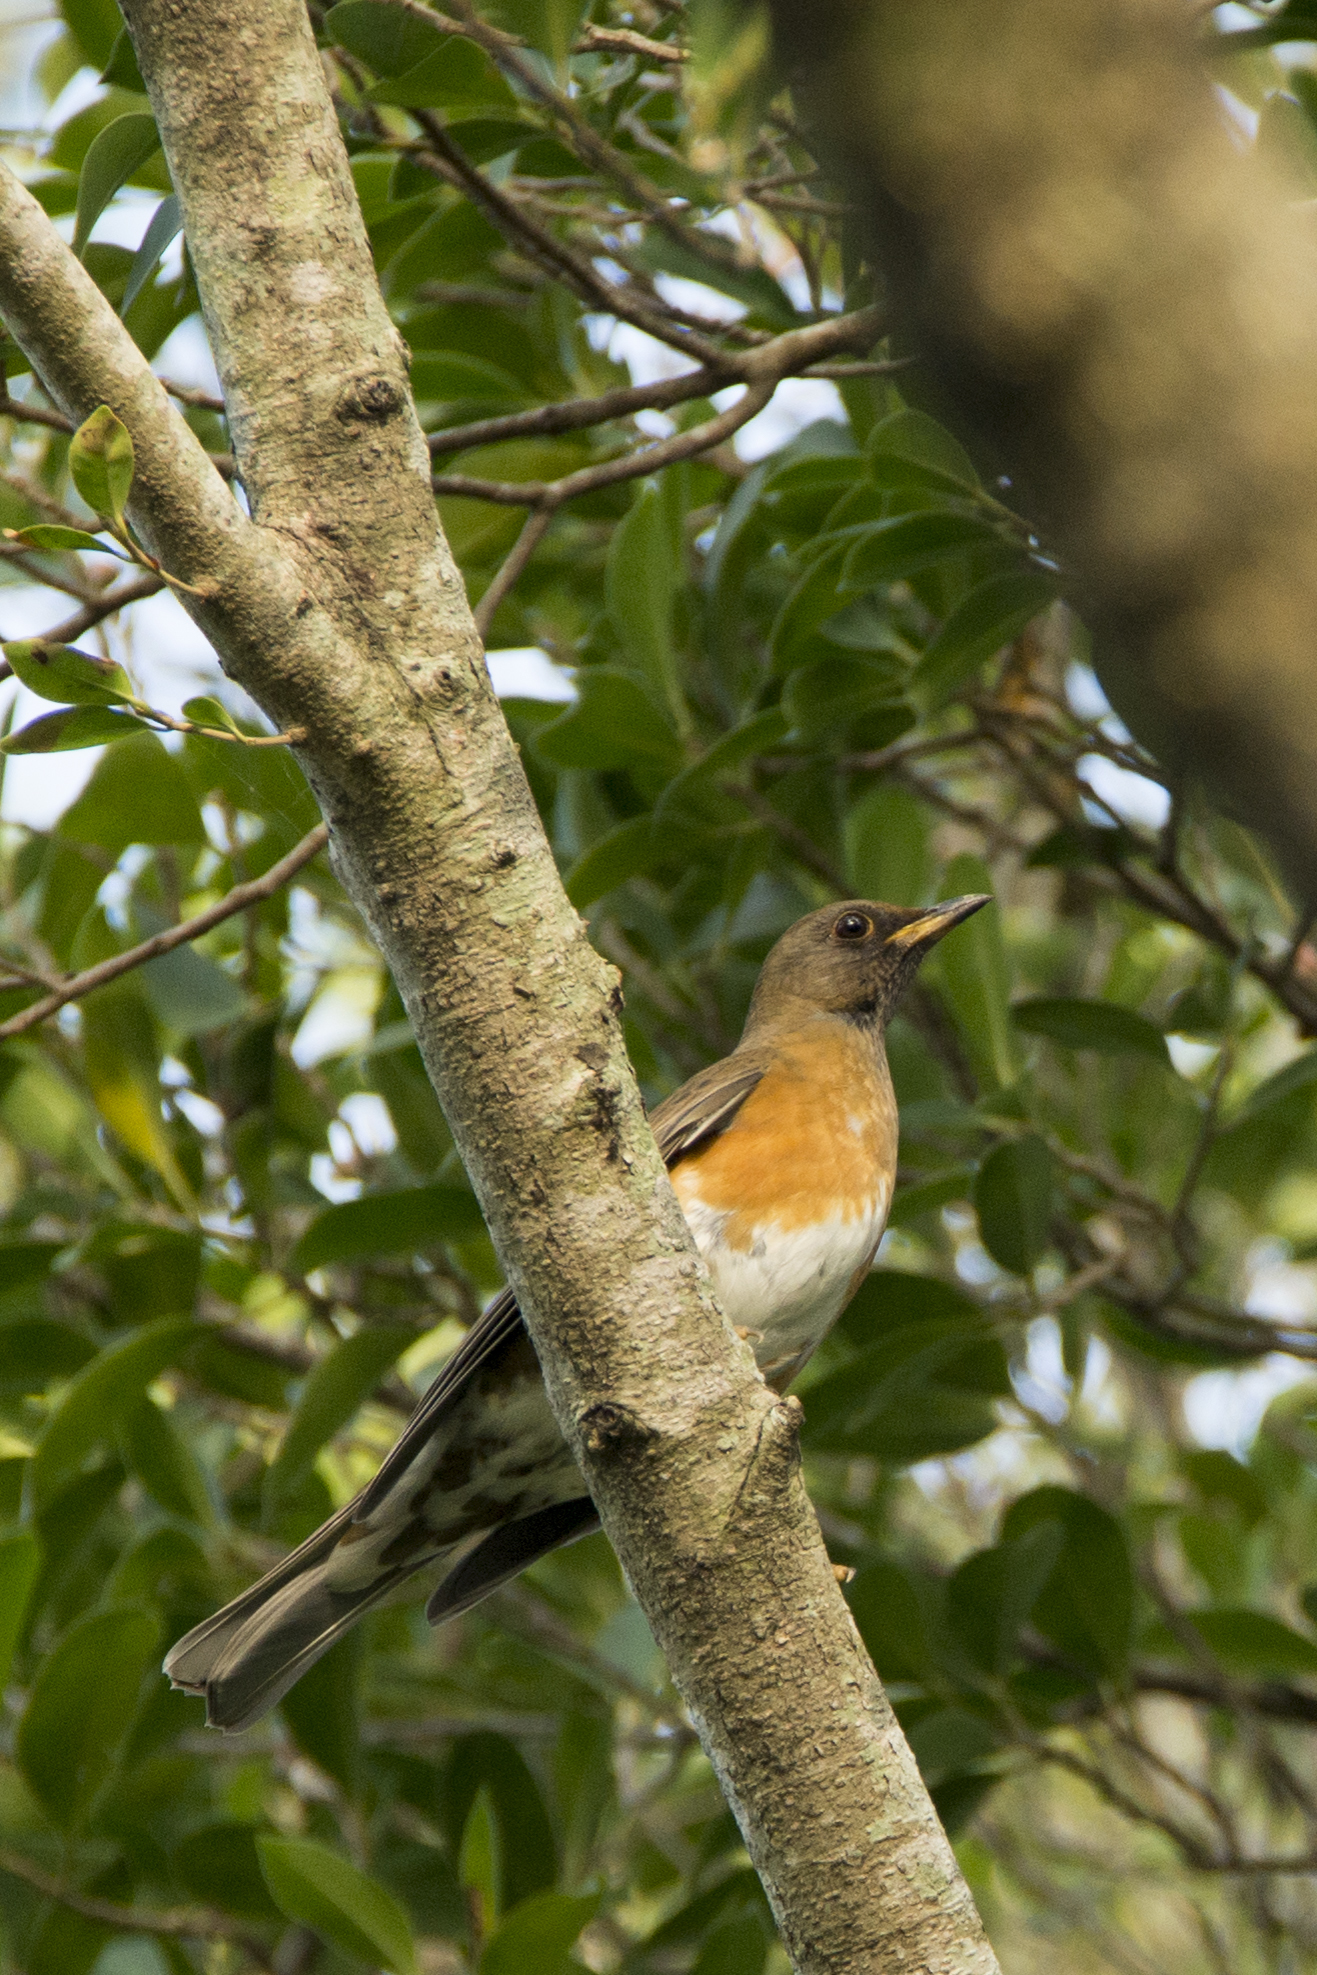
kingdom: Animalia
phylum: Chordata
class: Aves
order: Passeriformes
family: Turdidae
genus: Turdus
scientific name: Turdus chrysolaus
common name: Brown-headed thrush
